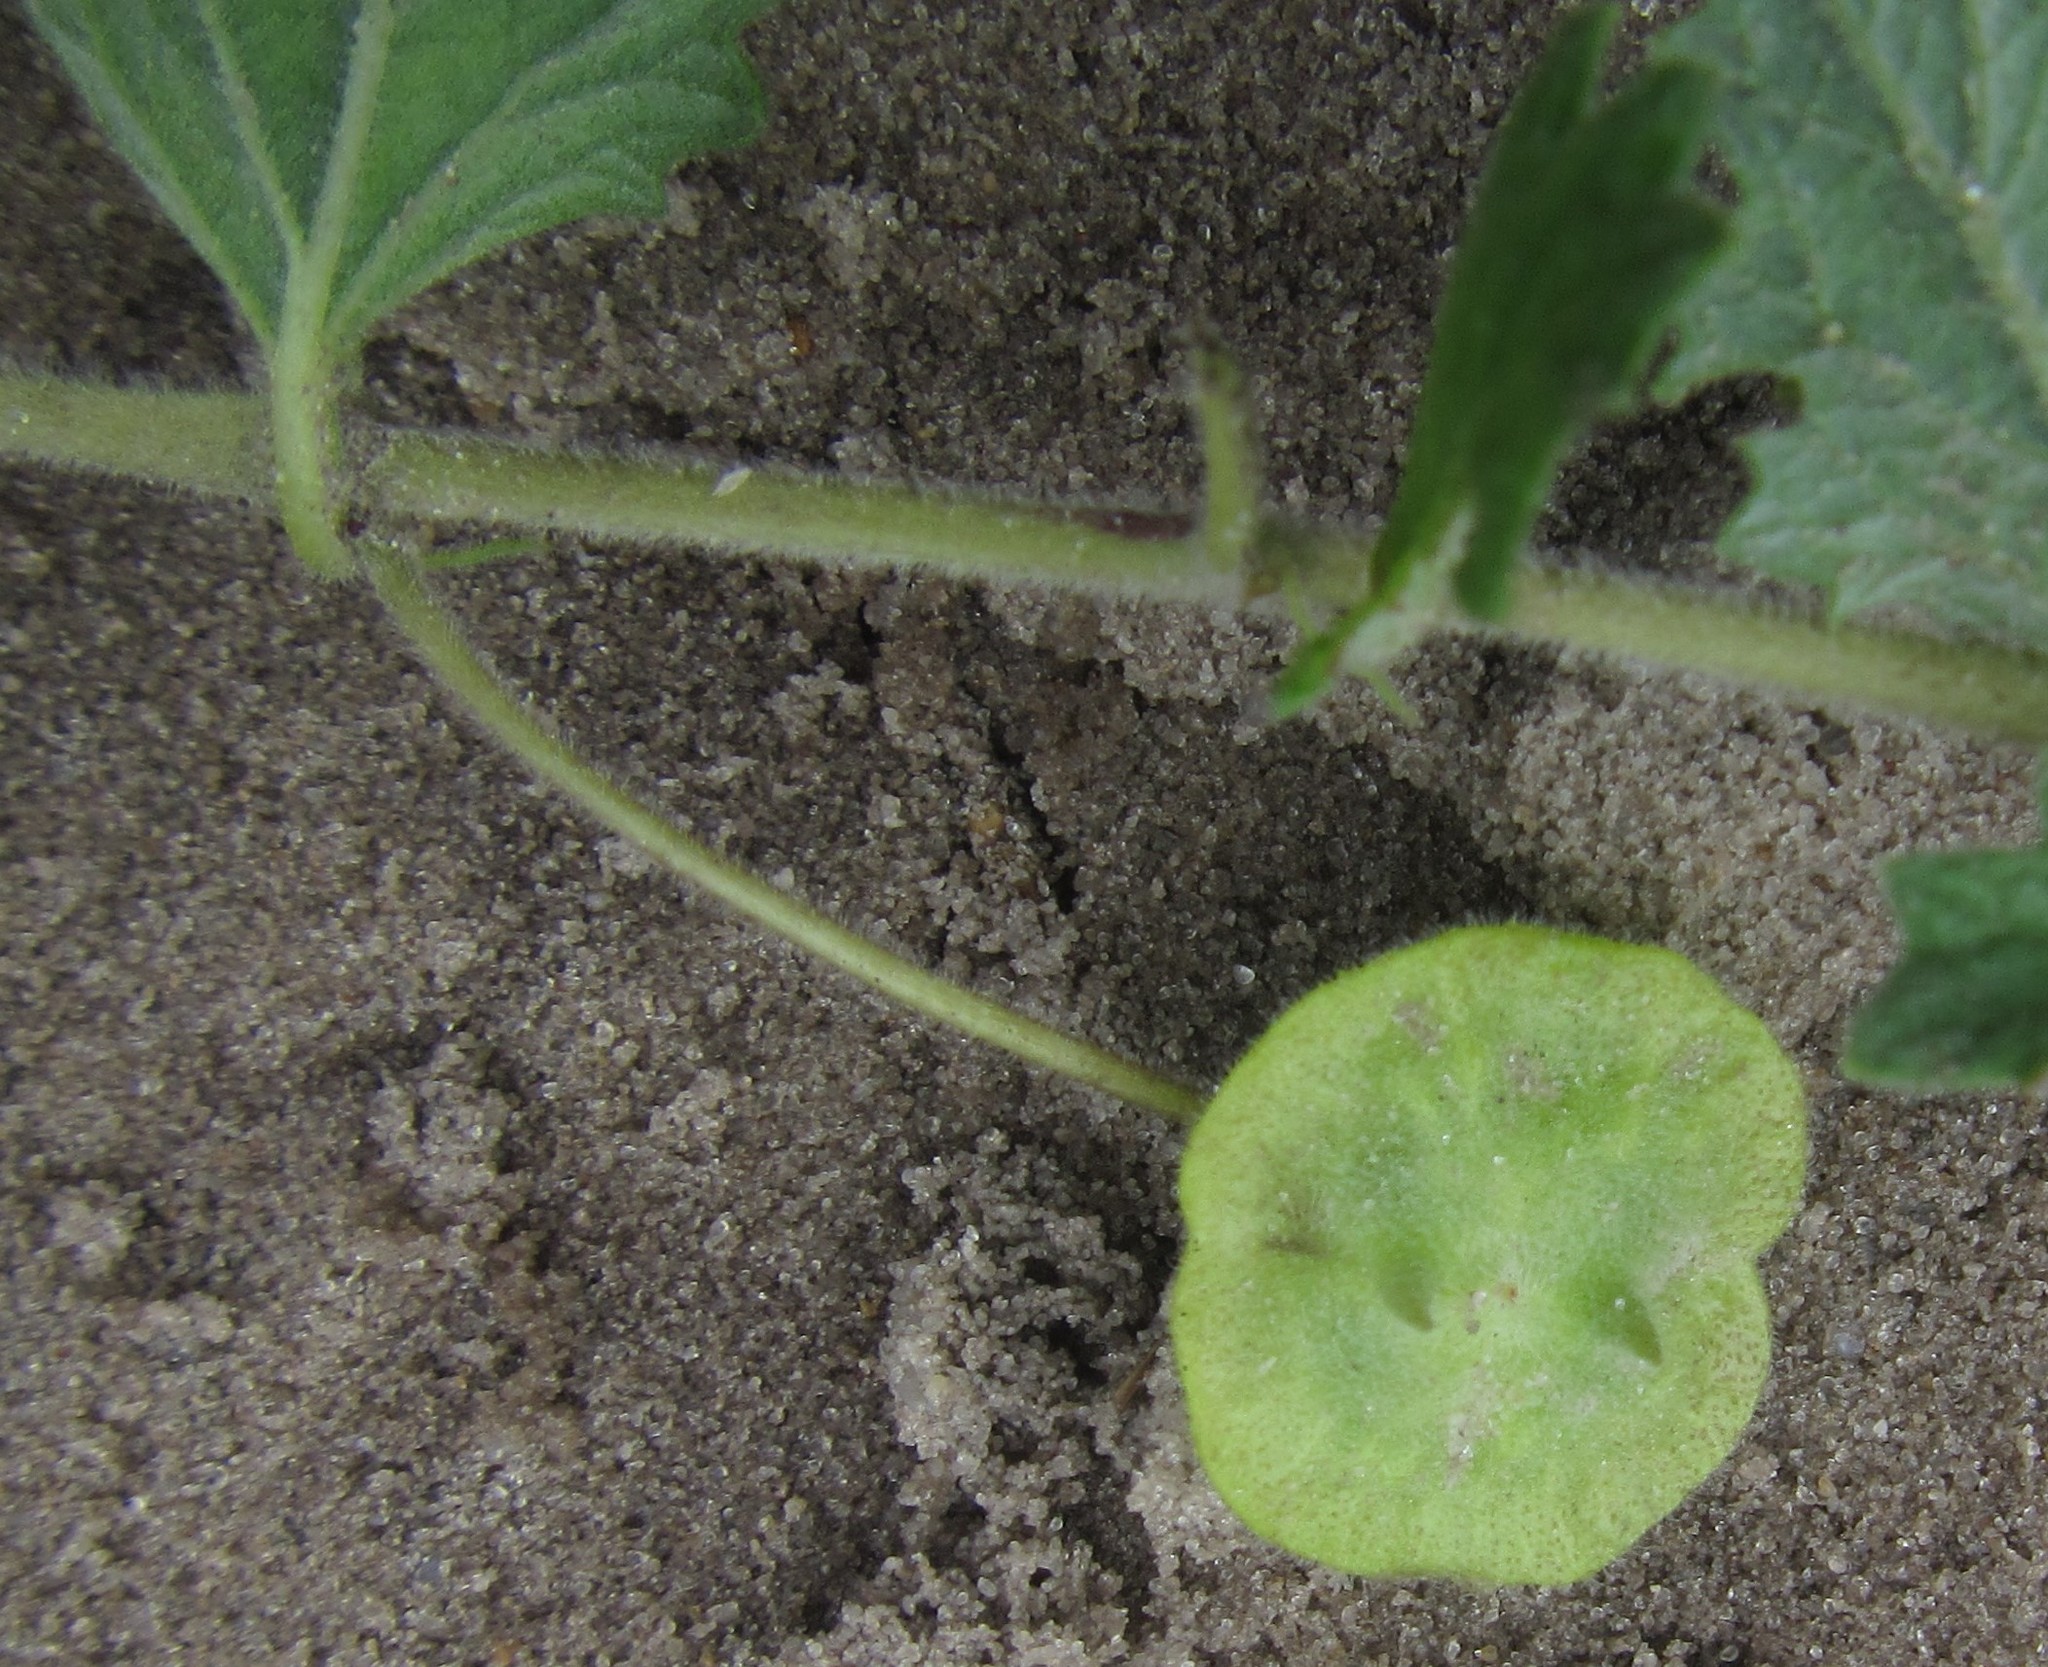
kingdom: Plantae
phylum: Tracheophyta
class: Magnoliopsida
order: Lamiales
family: Pedaliaceae
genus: Dicerocaryum
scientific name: Dicerocaryum eriocarpum
